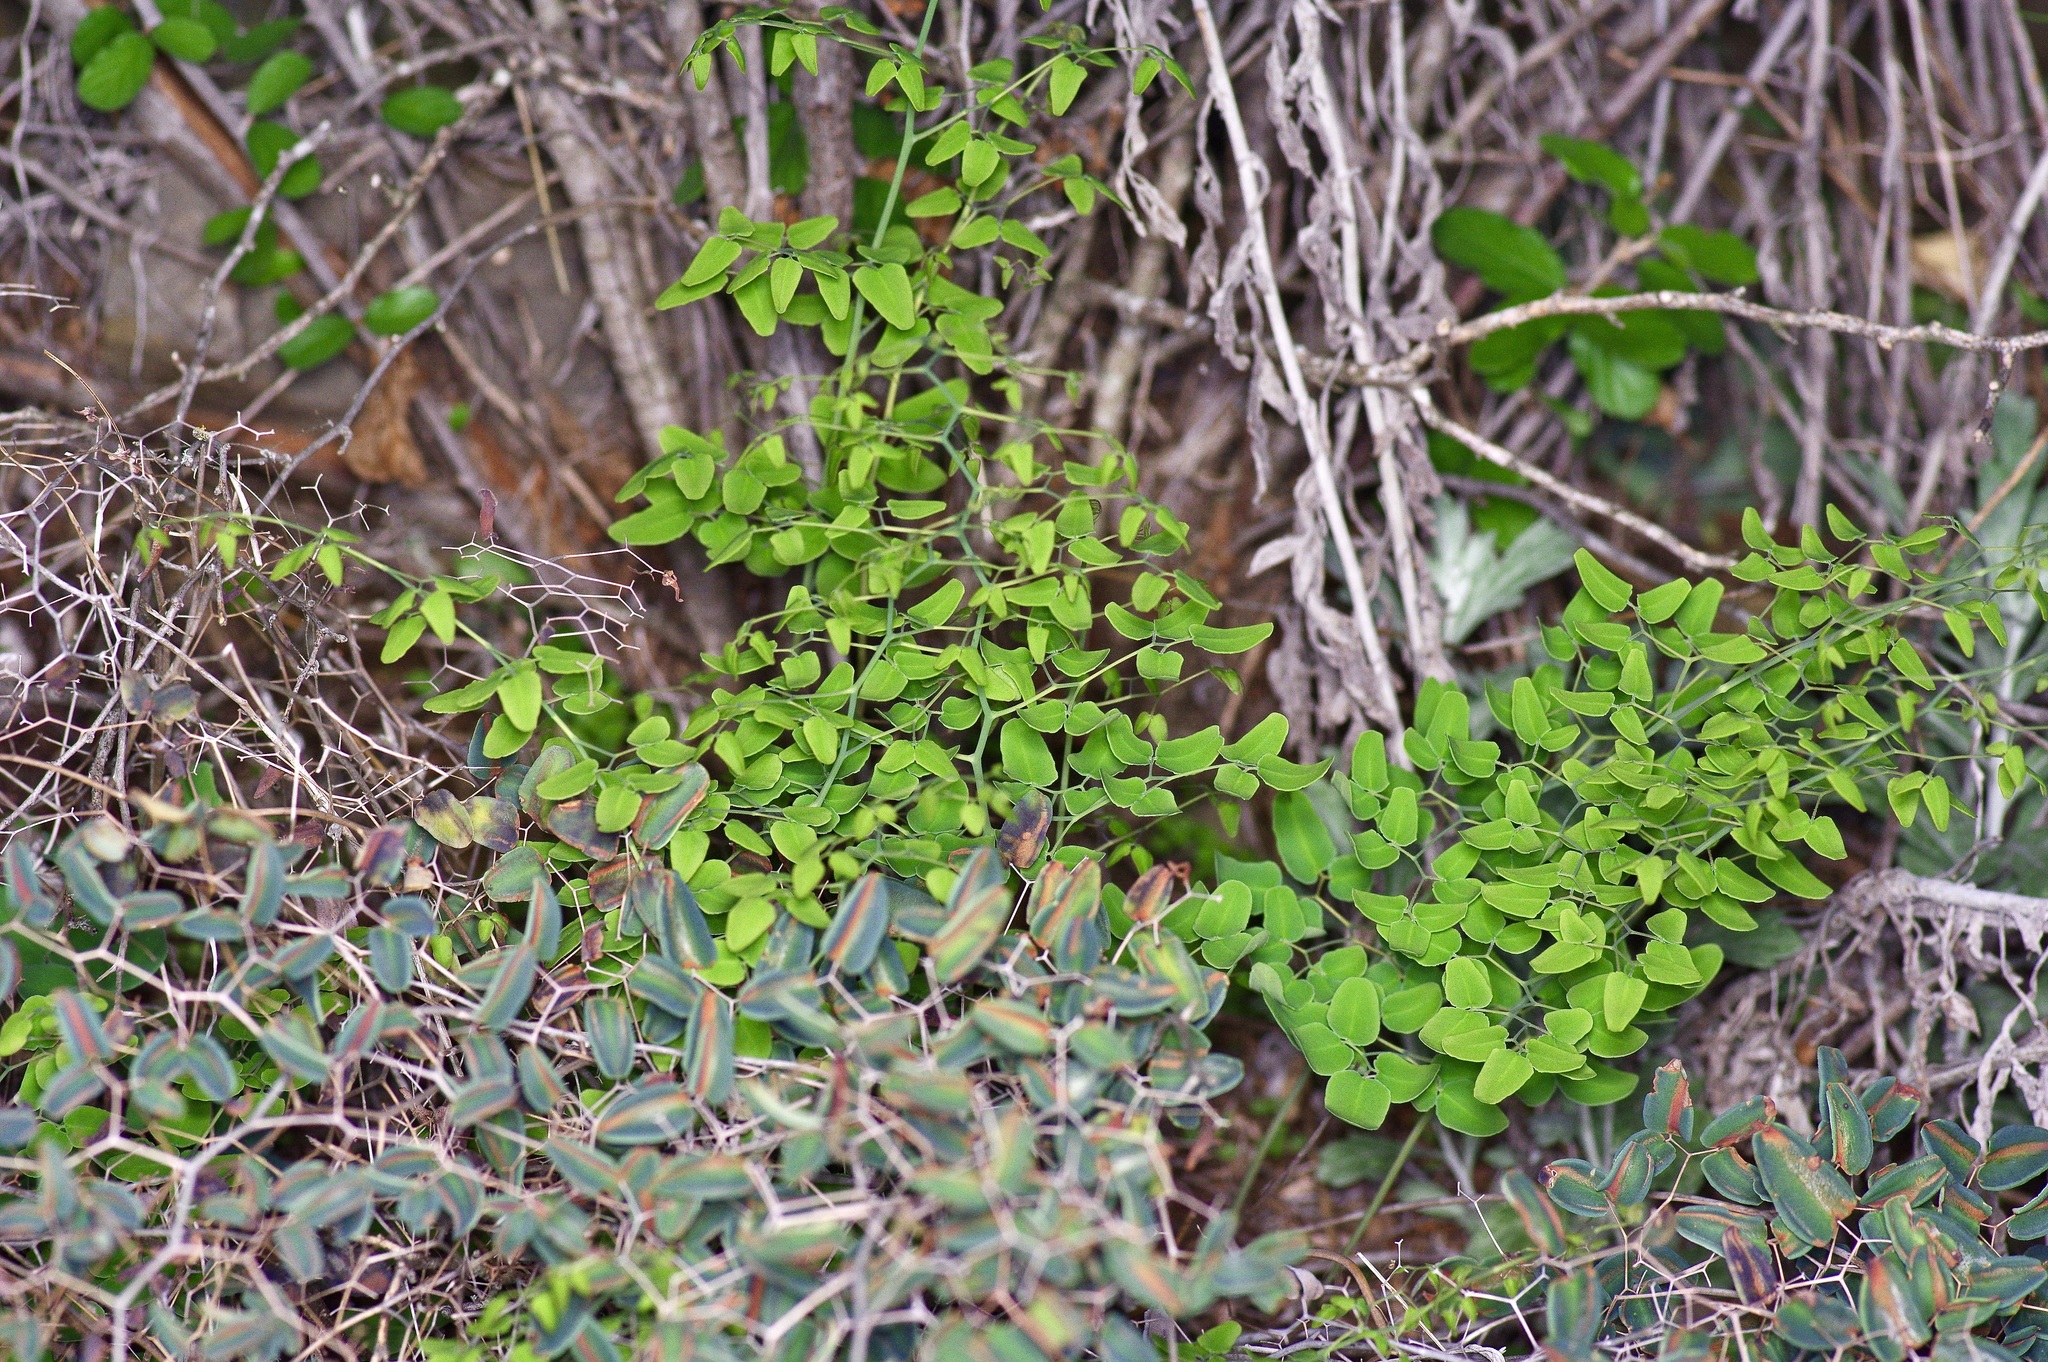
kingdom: Plantae
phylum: Tracheophyta
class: Polypodiopsida
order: Polypodiales
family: Pteridaceae
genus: Pellaea
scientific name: Pellaea ovata
